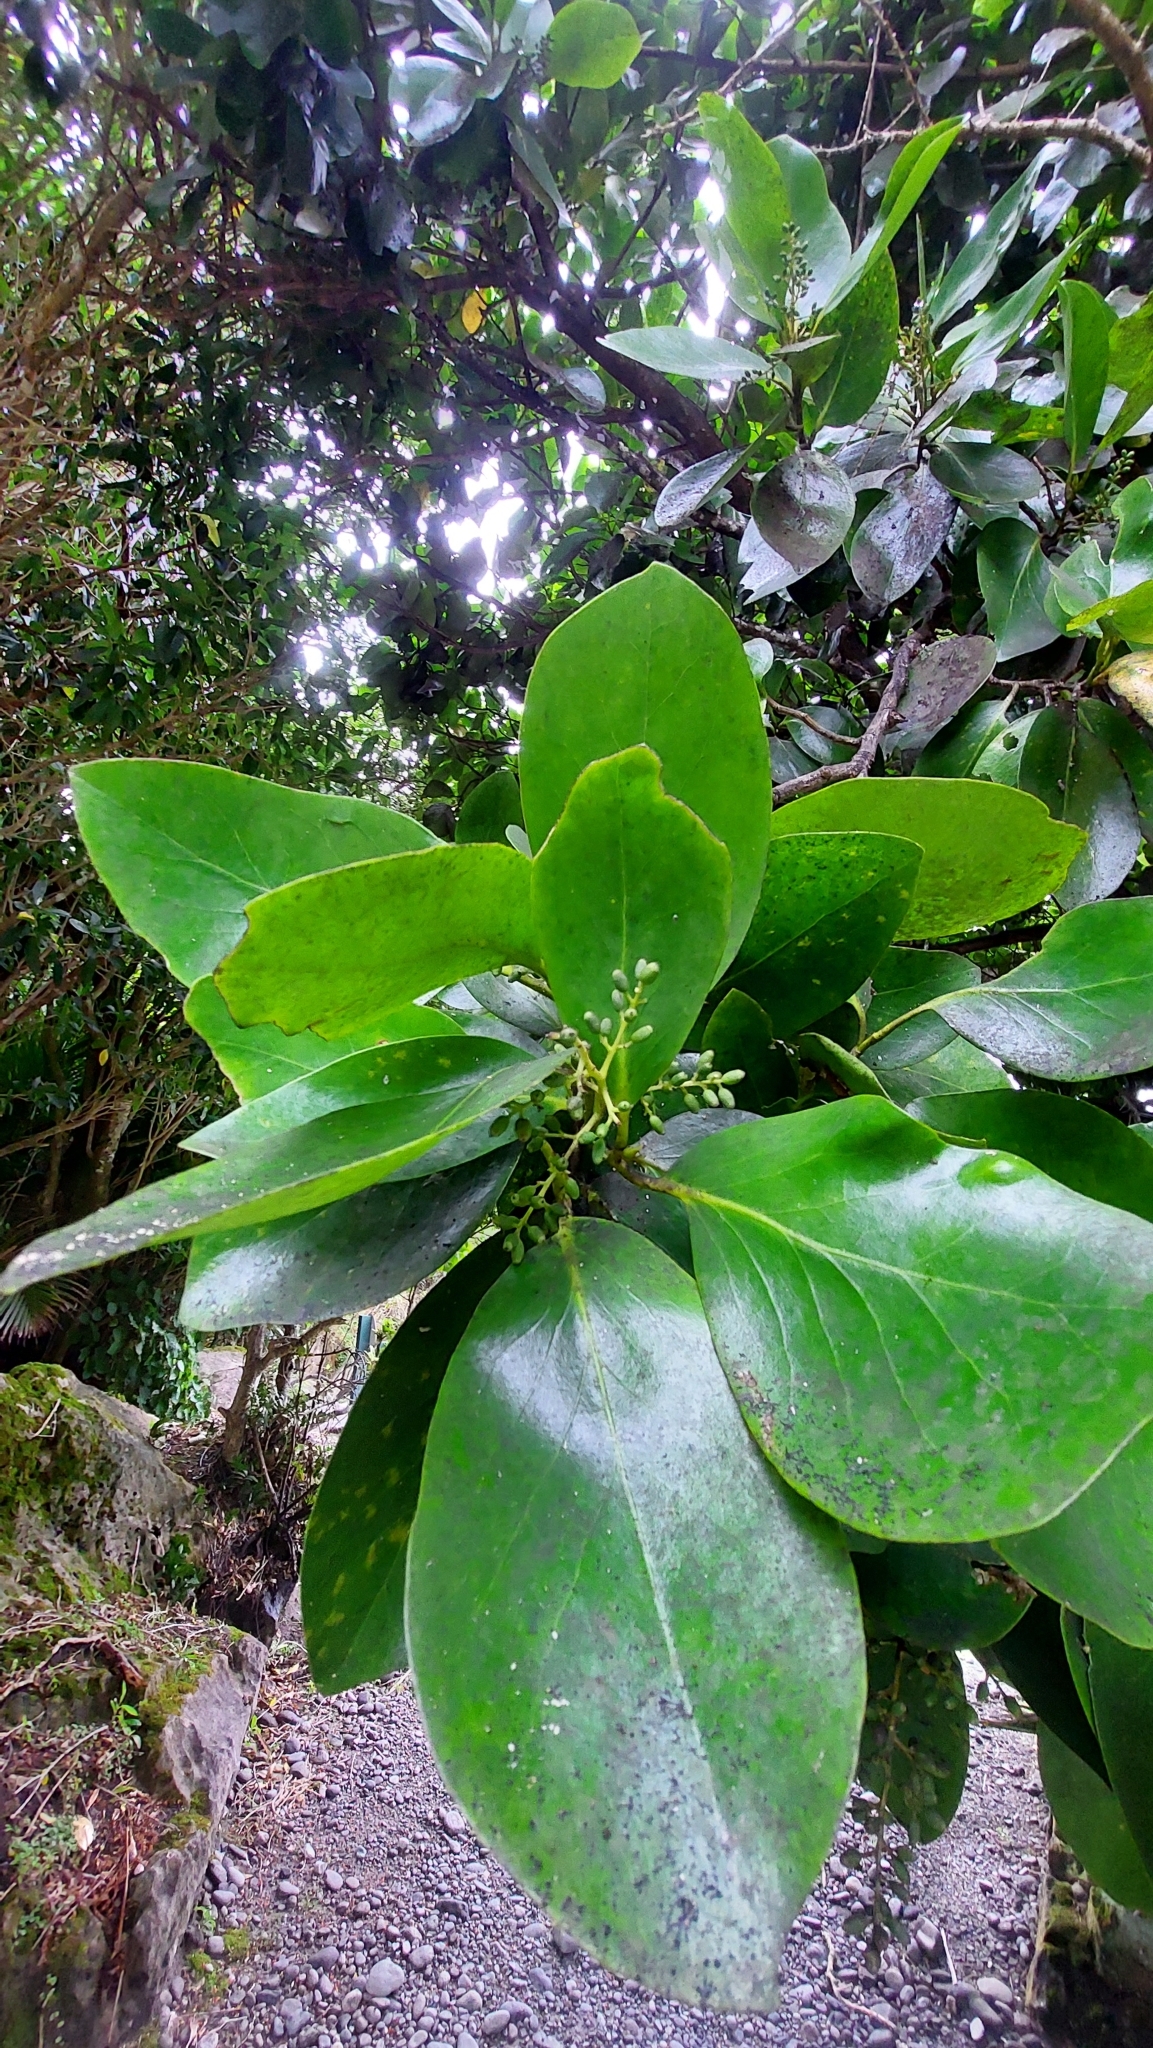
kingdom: Plantae
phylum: Tracheophyta
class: Magnoliopsida
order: Apiales
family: Griseliniaceae
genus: Griselinia
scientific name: Griselinia lucida
